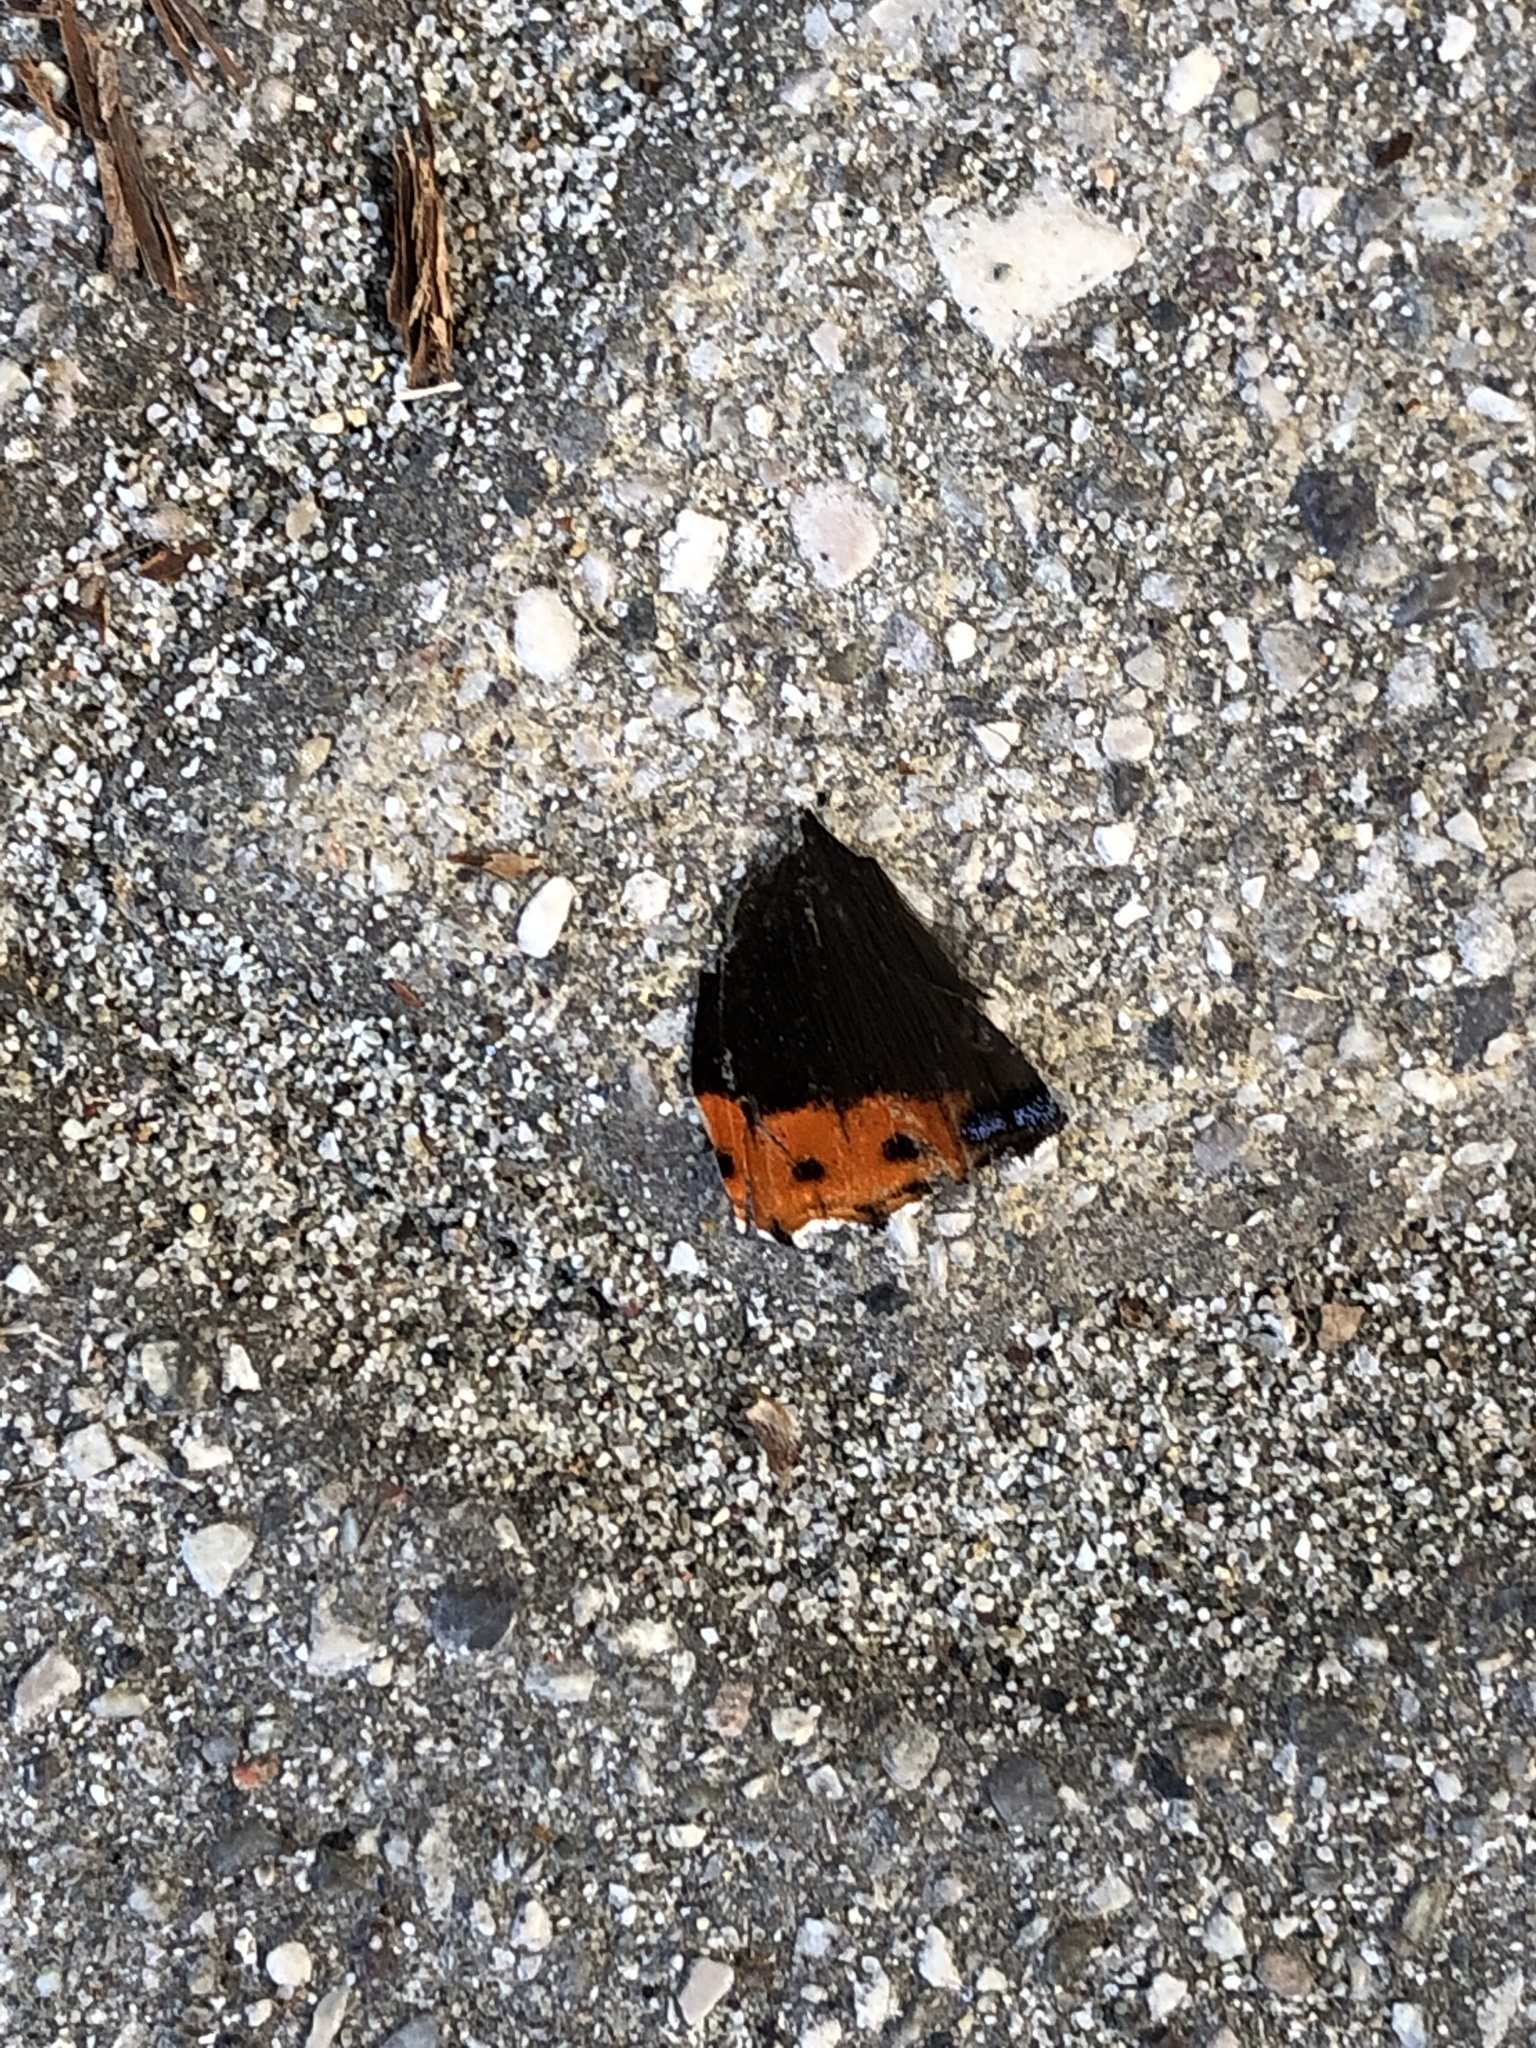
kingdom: Animalia
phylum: Arthropoda
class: Insecta
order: Lepidoptera
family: Nymphalidae
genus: Vanessa
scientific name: Vanessa atalanta
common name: Red admiral
